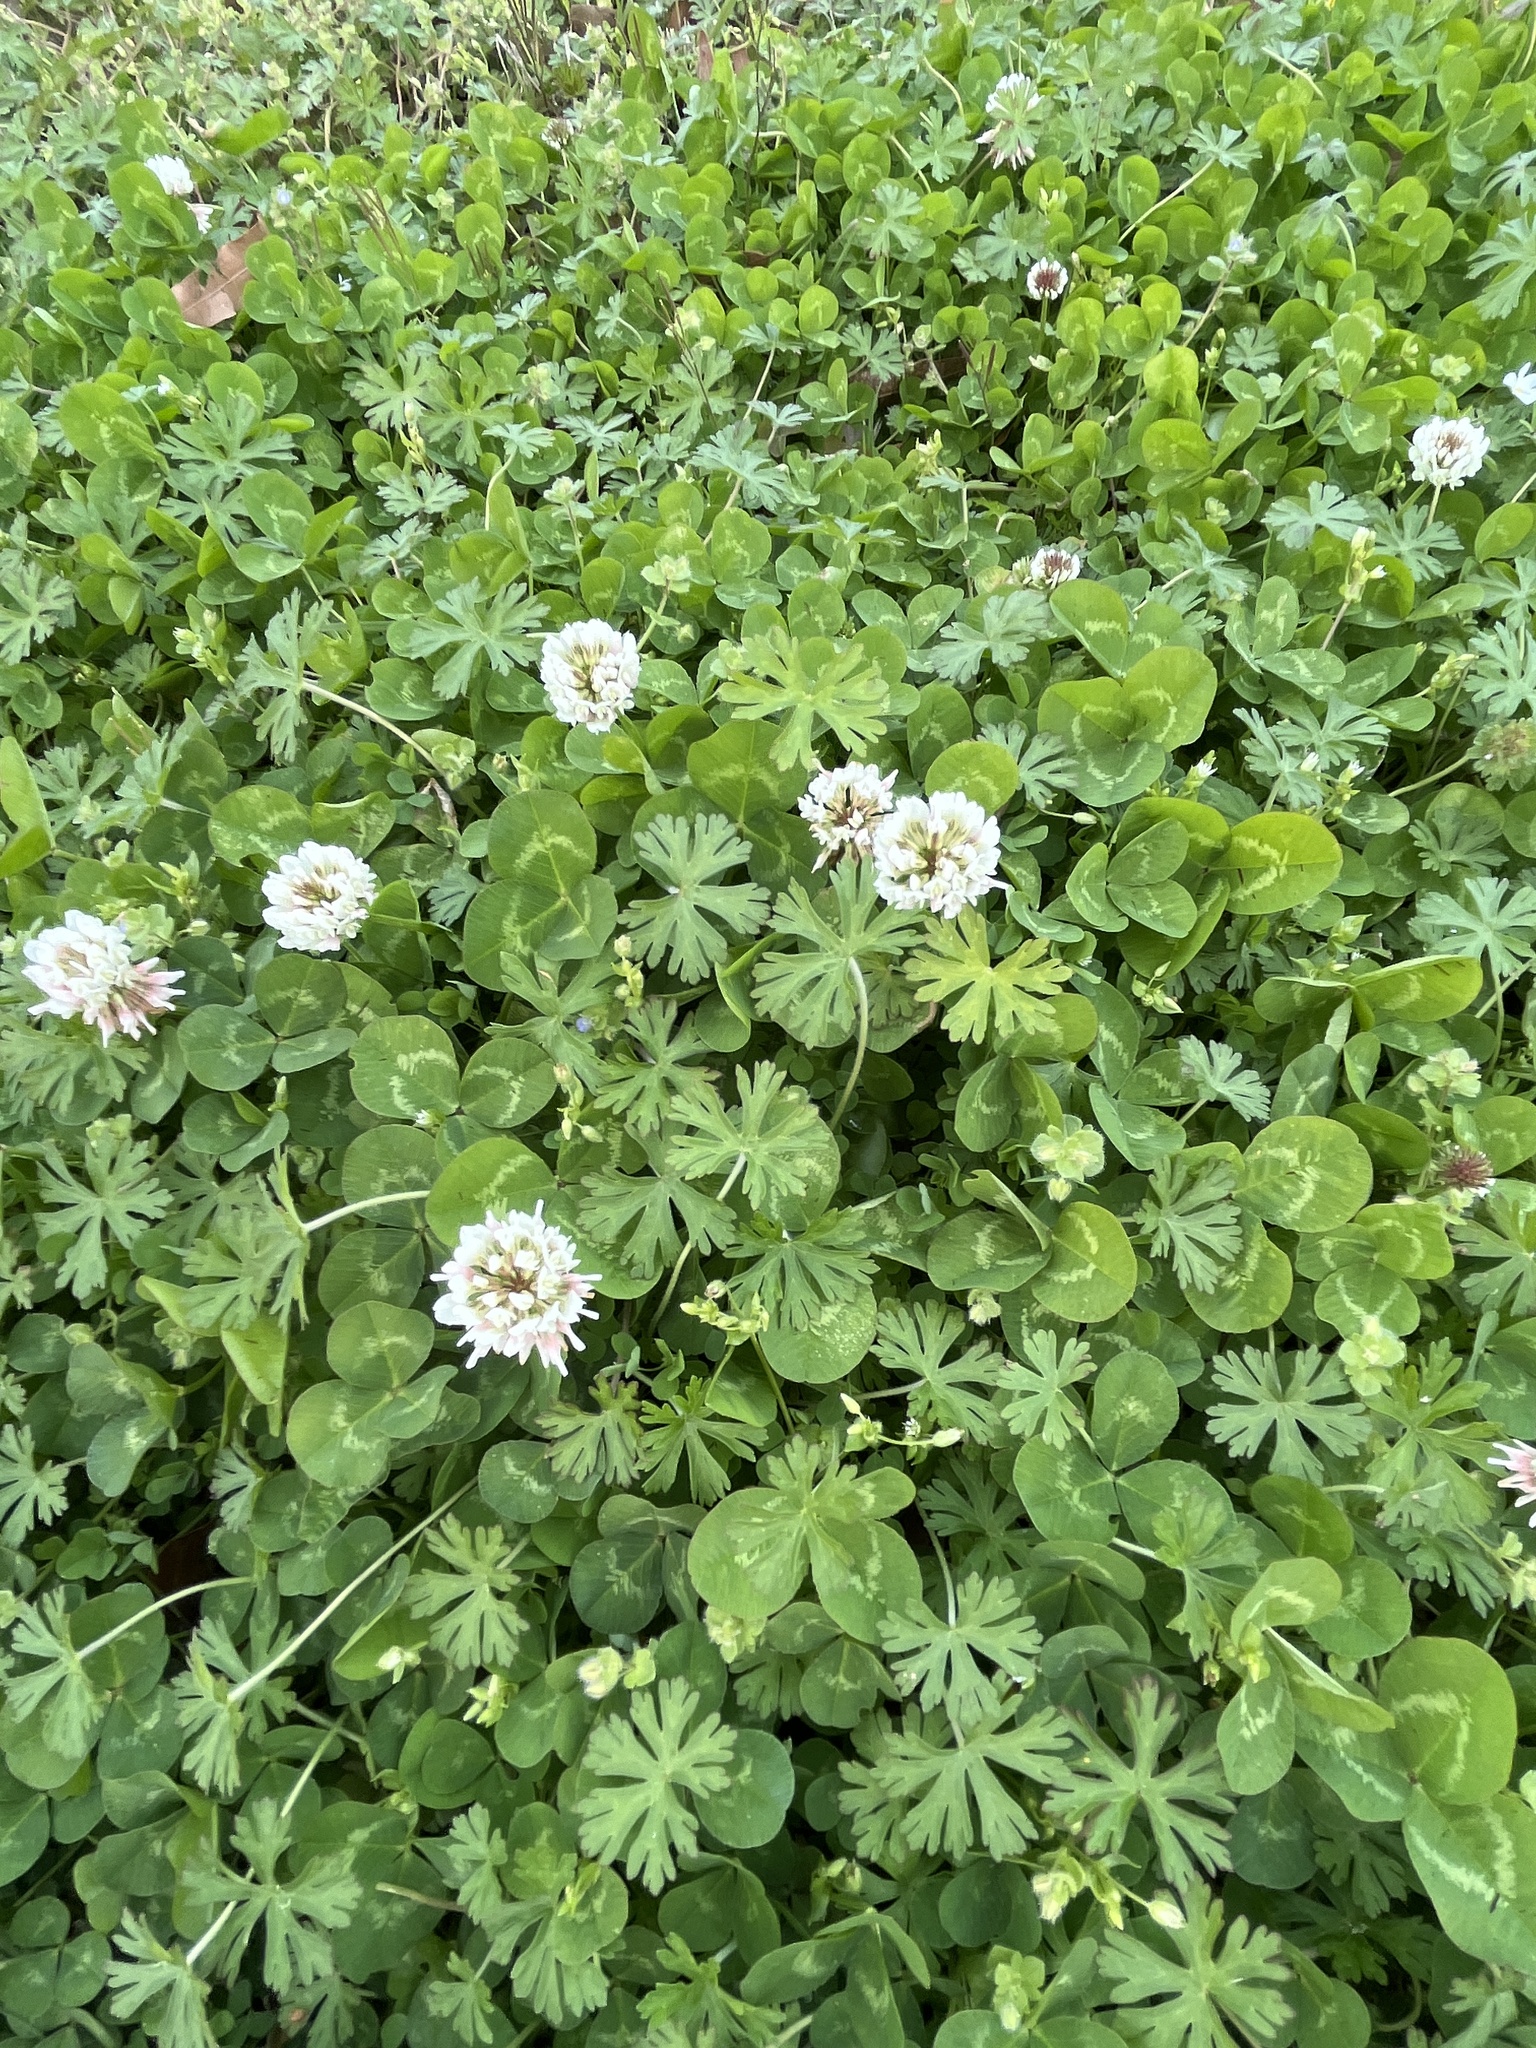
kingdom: Plantae
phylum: Tracheophyta
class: Magnoliopsida
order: Fabales
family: Fabaceae
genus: Trifolium
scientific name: Trifolium repens
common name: White clover
